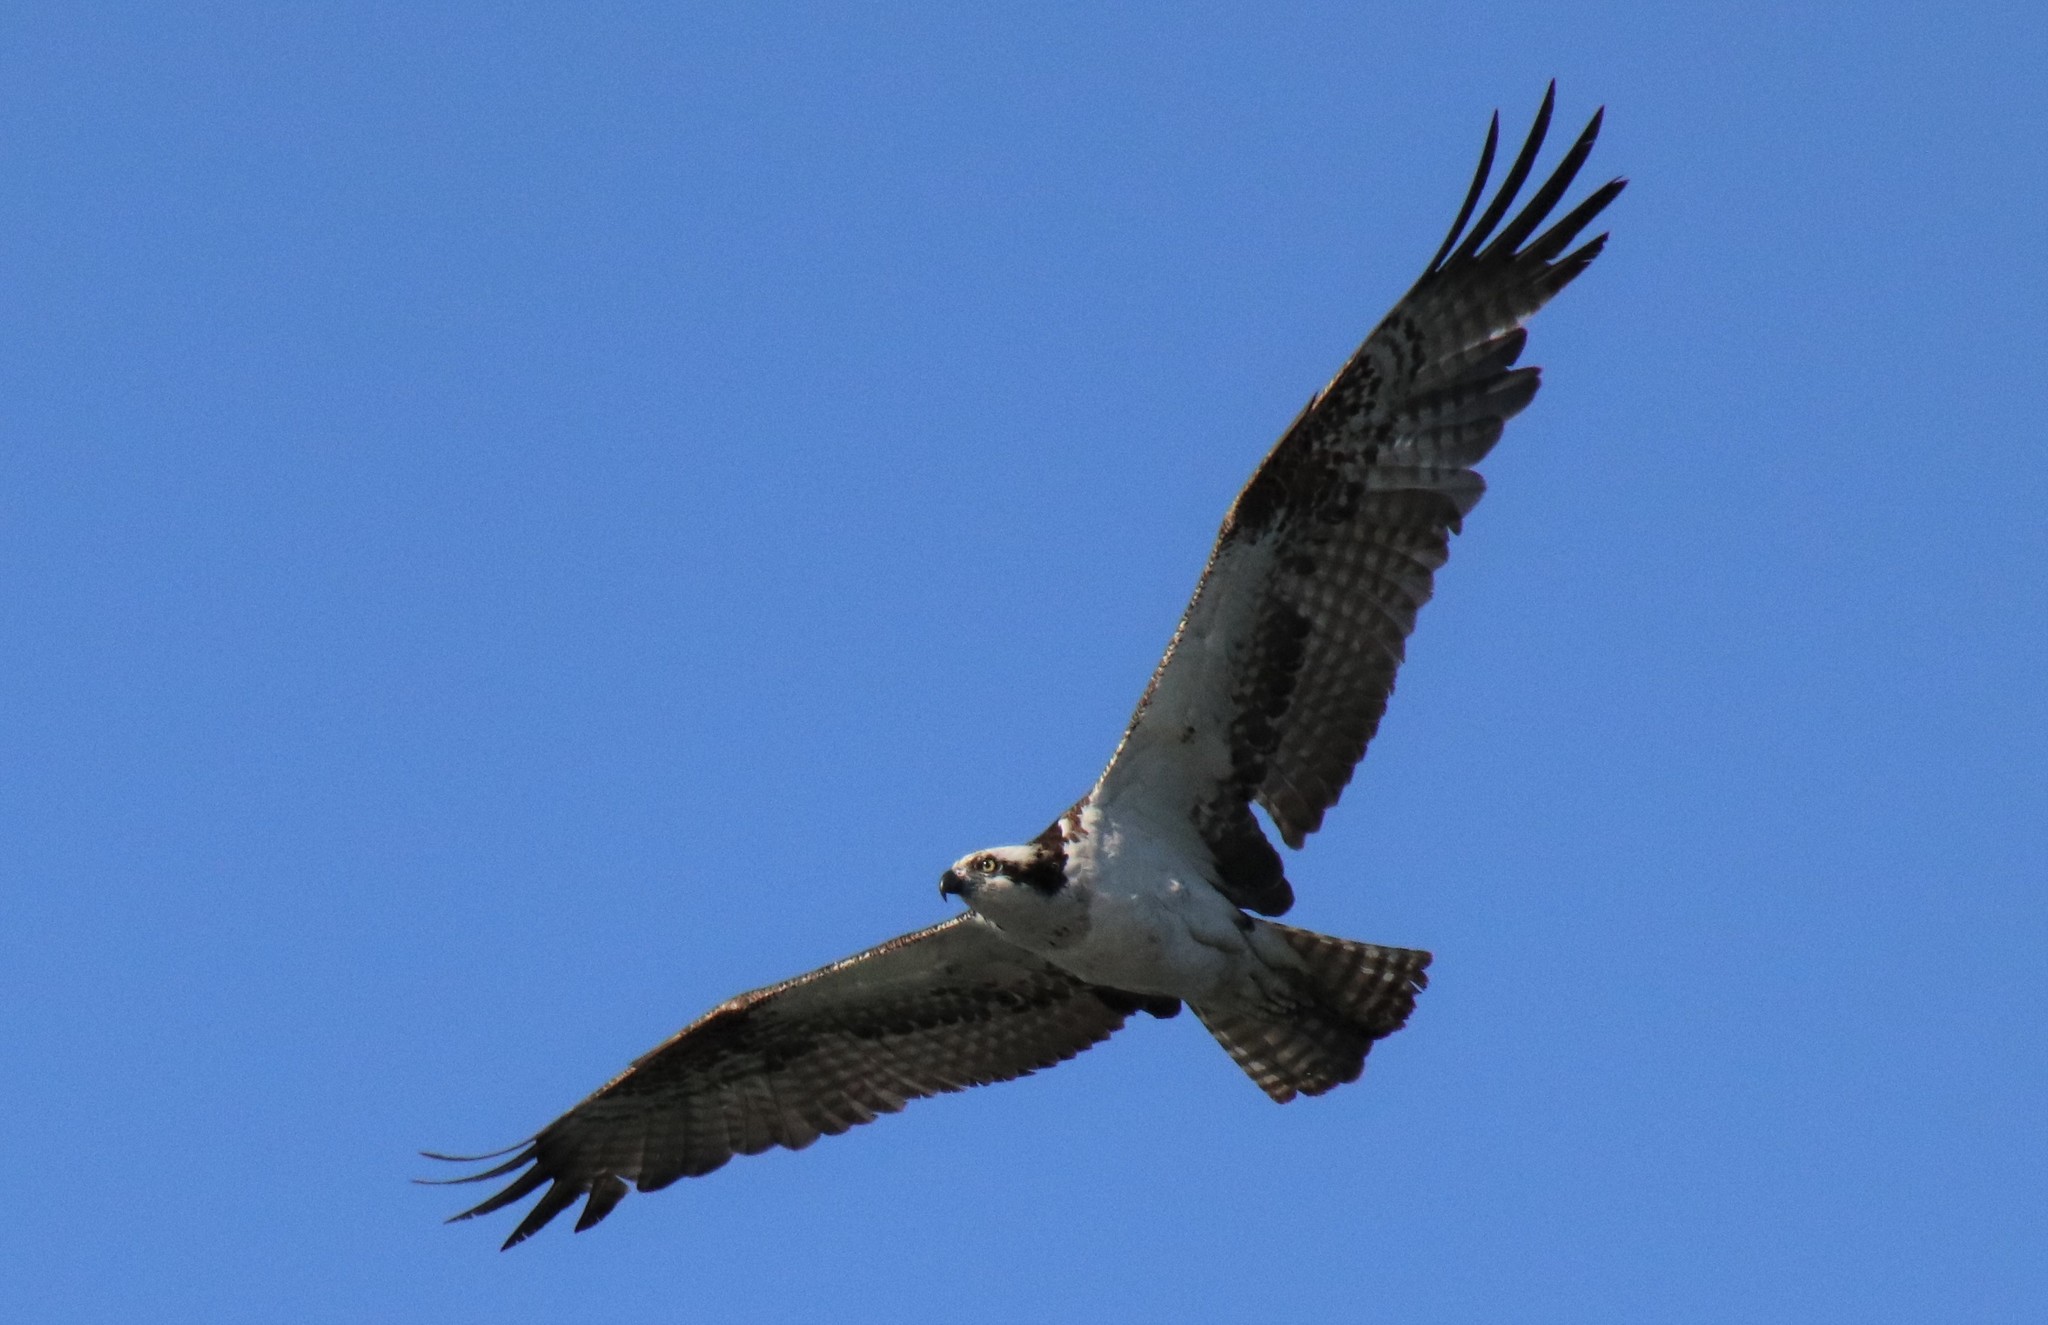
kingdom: Animalia
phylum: Chordata
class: Aves
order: Accipitriformes
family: Pandionidae
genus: Pandion
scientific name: Pandion haliaetus
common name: Osprey
